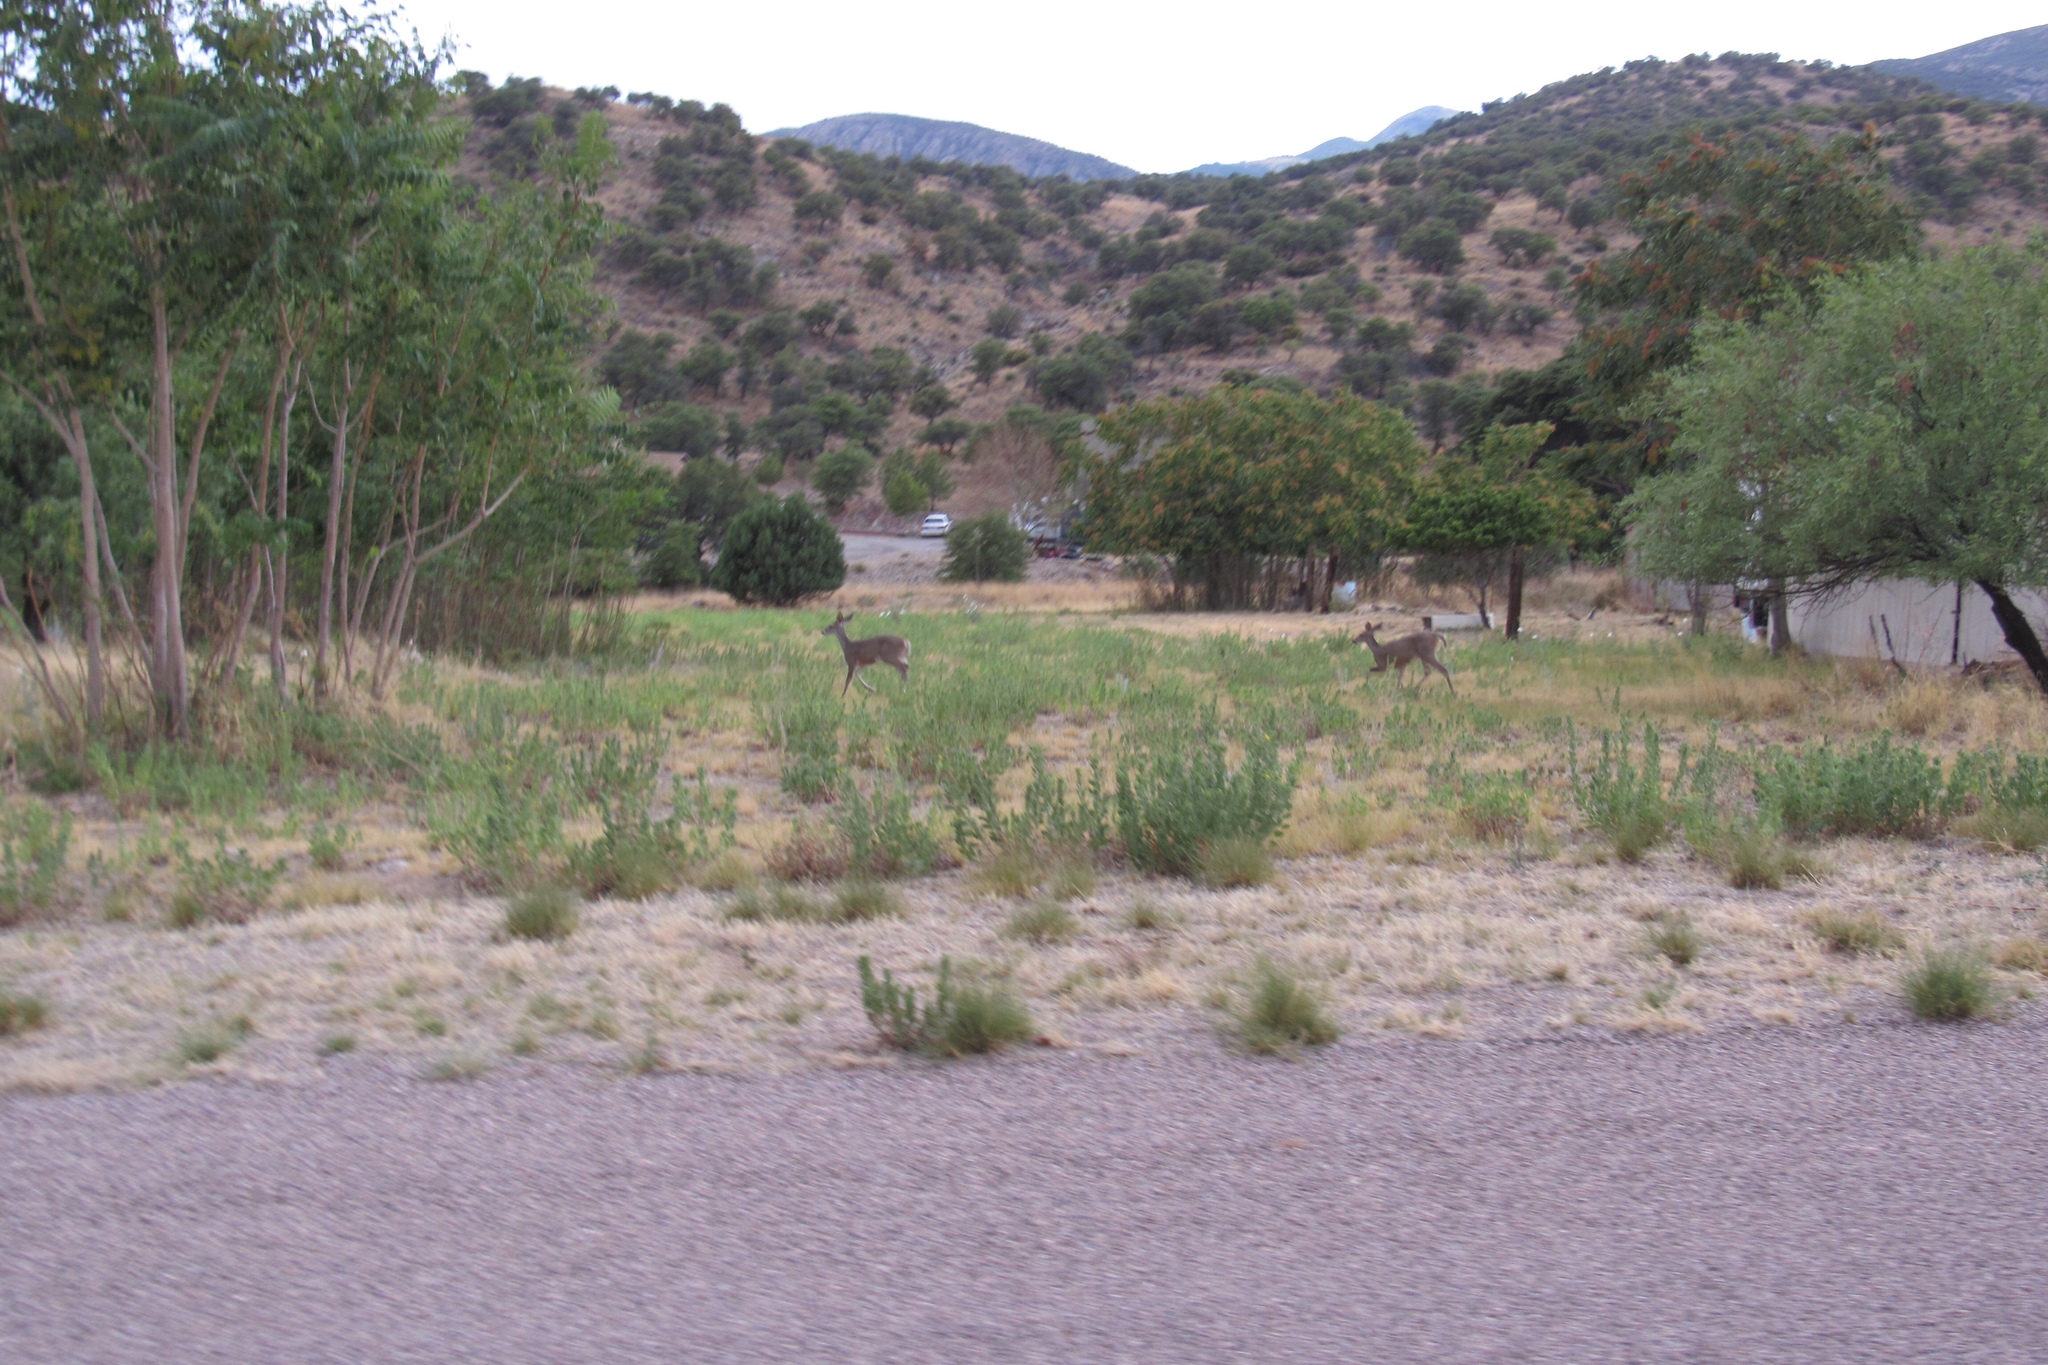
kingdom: Animalia
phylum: Chordata
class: Mammalia
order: Artiodactyla
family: Cervidae
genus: Odocoileus
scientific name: Odocoileus virginianus
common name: White-tailed deer
